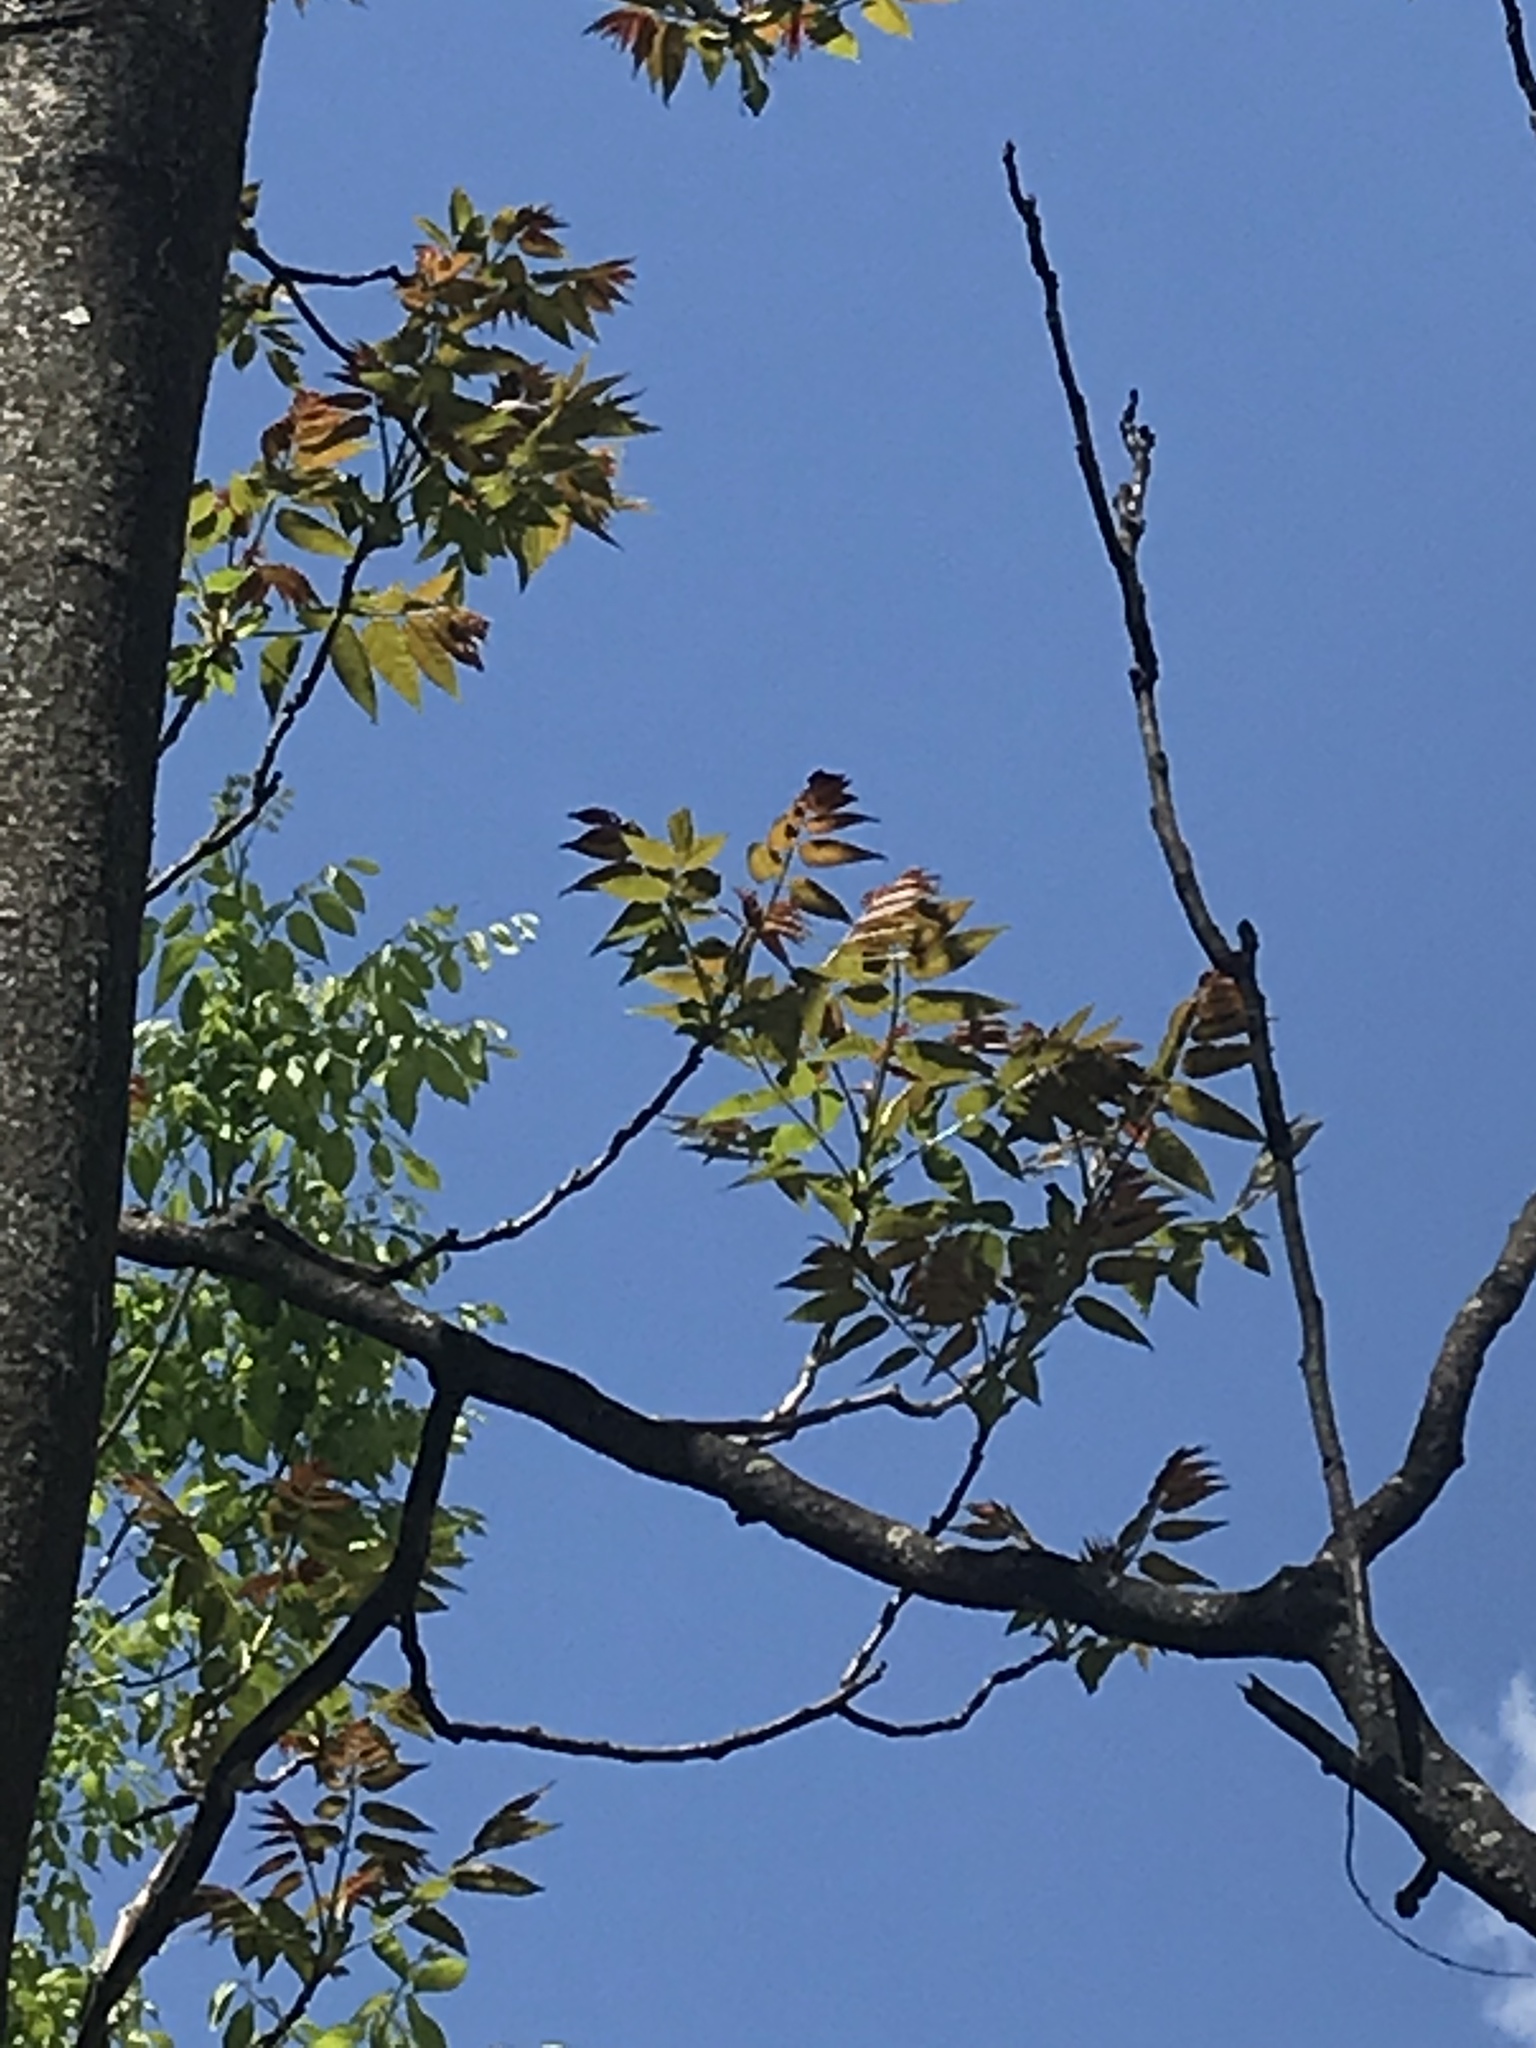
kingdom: Plantae
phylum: Tracheophyta
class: Magnoliopsida
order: Sapindales
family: Simaroubaceae
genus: Ailanthus
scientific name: Ailanthus altissima
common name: Tree-of-heaven
